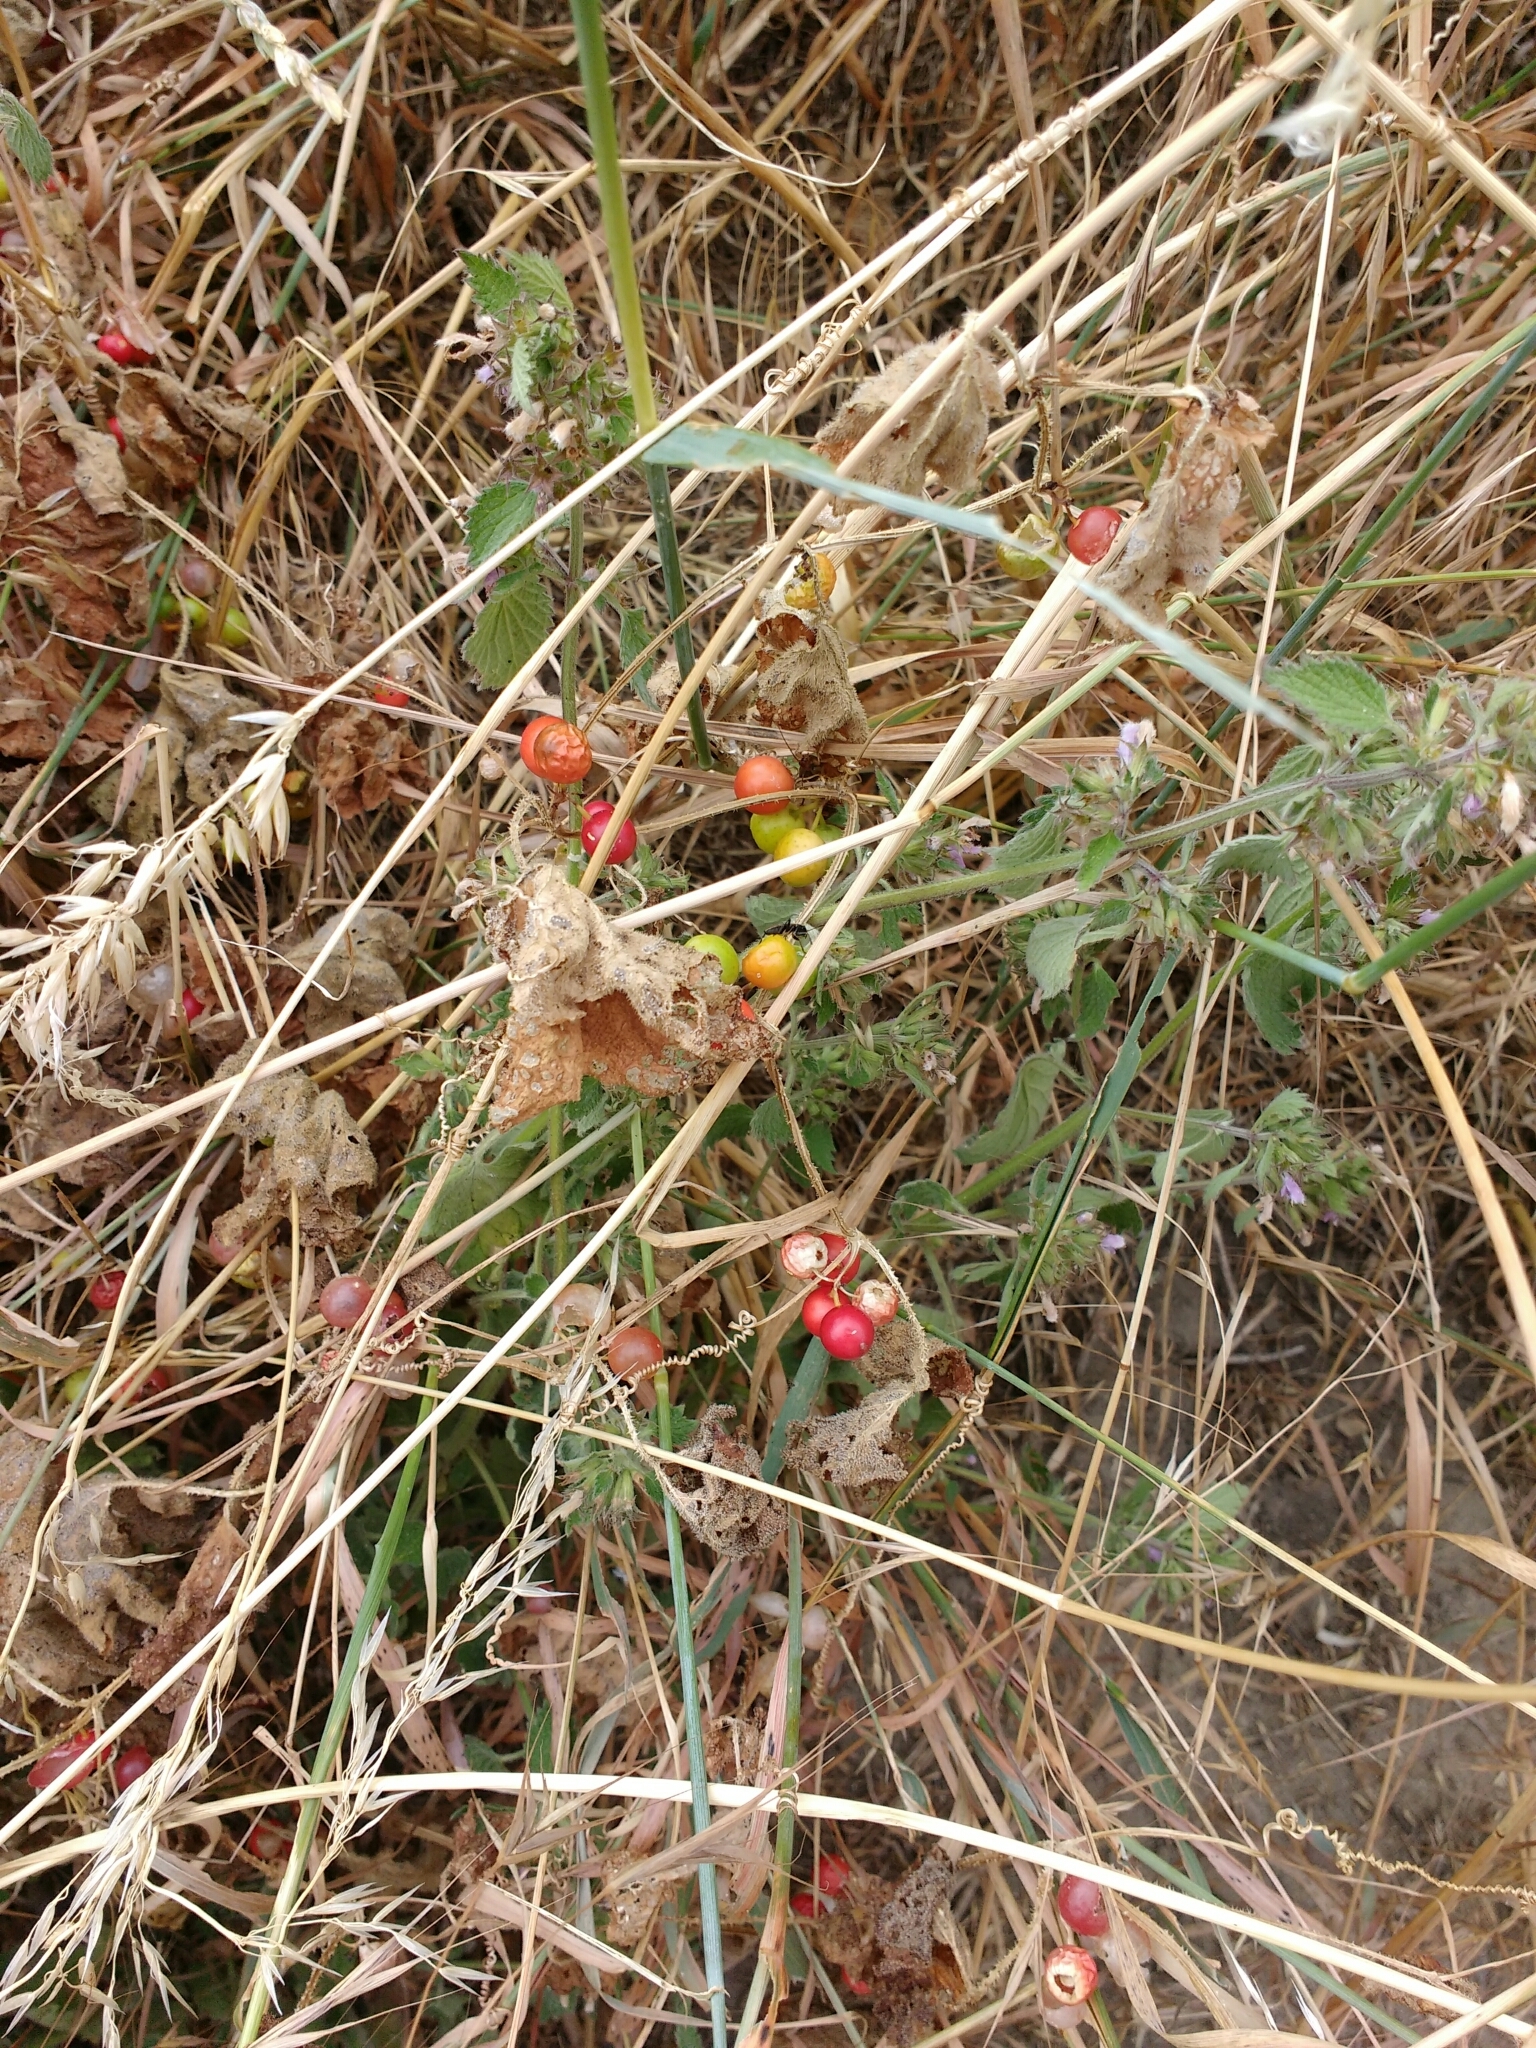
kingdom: Plantae
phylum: Tracheophyta
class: Magnoliopsida
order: Cucurbitales
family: Cucurbitaceae
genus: Bryonia
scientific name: Bryonia dioica
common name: White bryony
